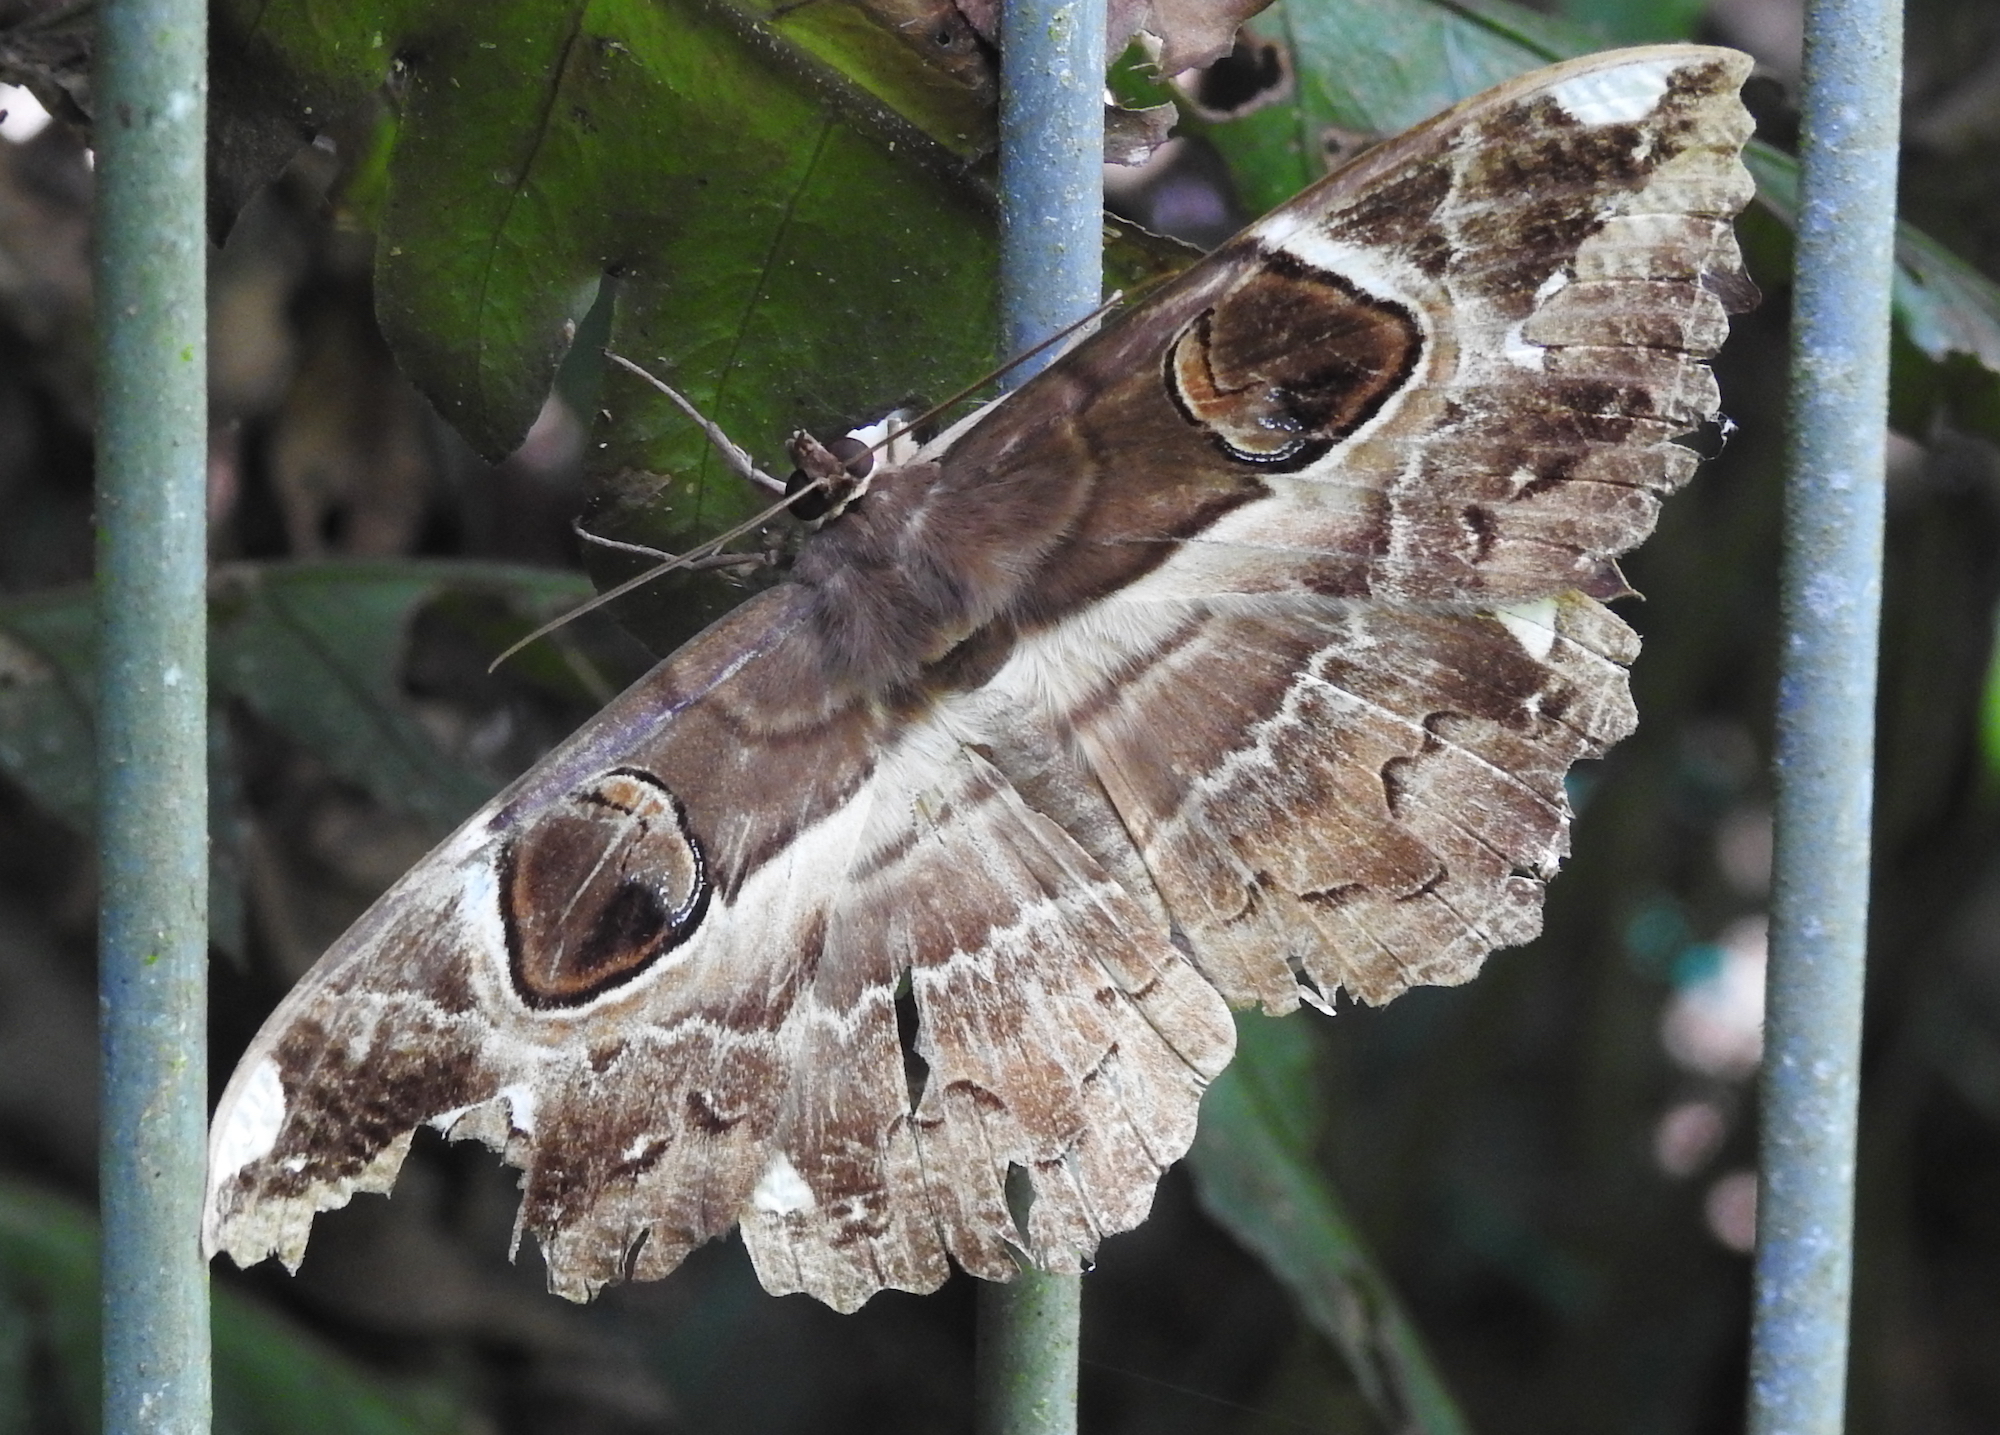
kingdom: Animalia
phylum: Arthropoda
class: Insecta
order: Lepidoptera
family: Erebidae
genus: Erebus
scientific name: Erebus ephesperis
